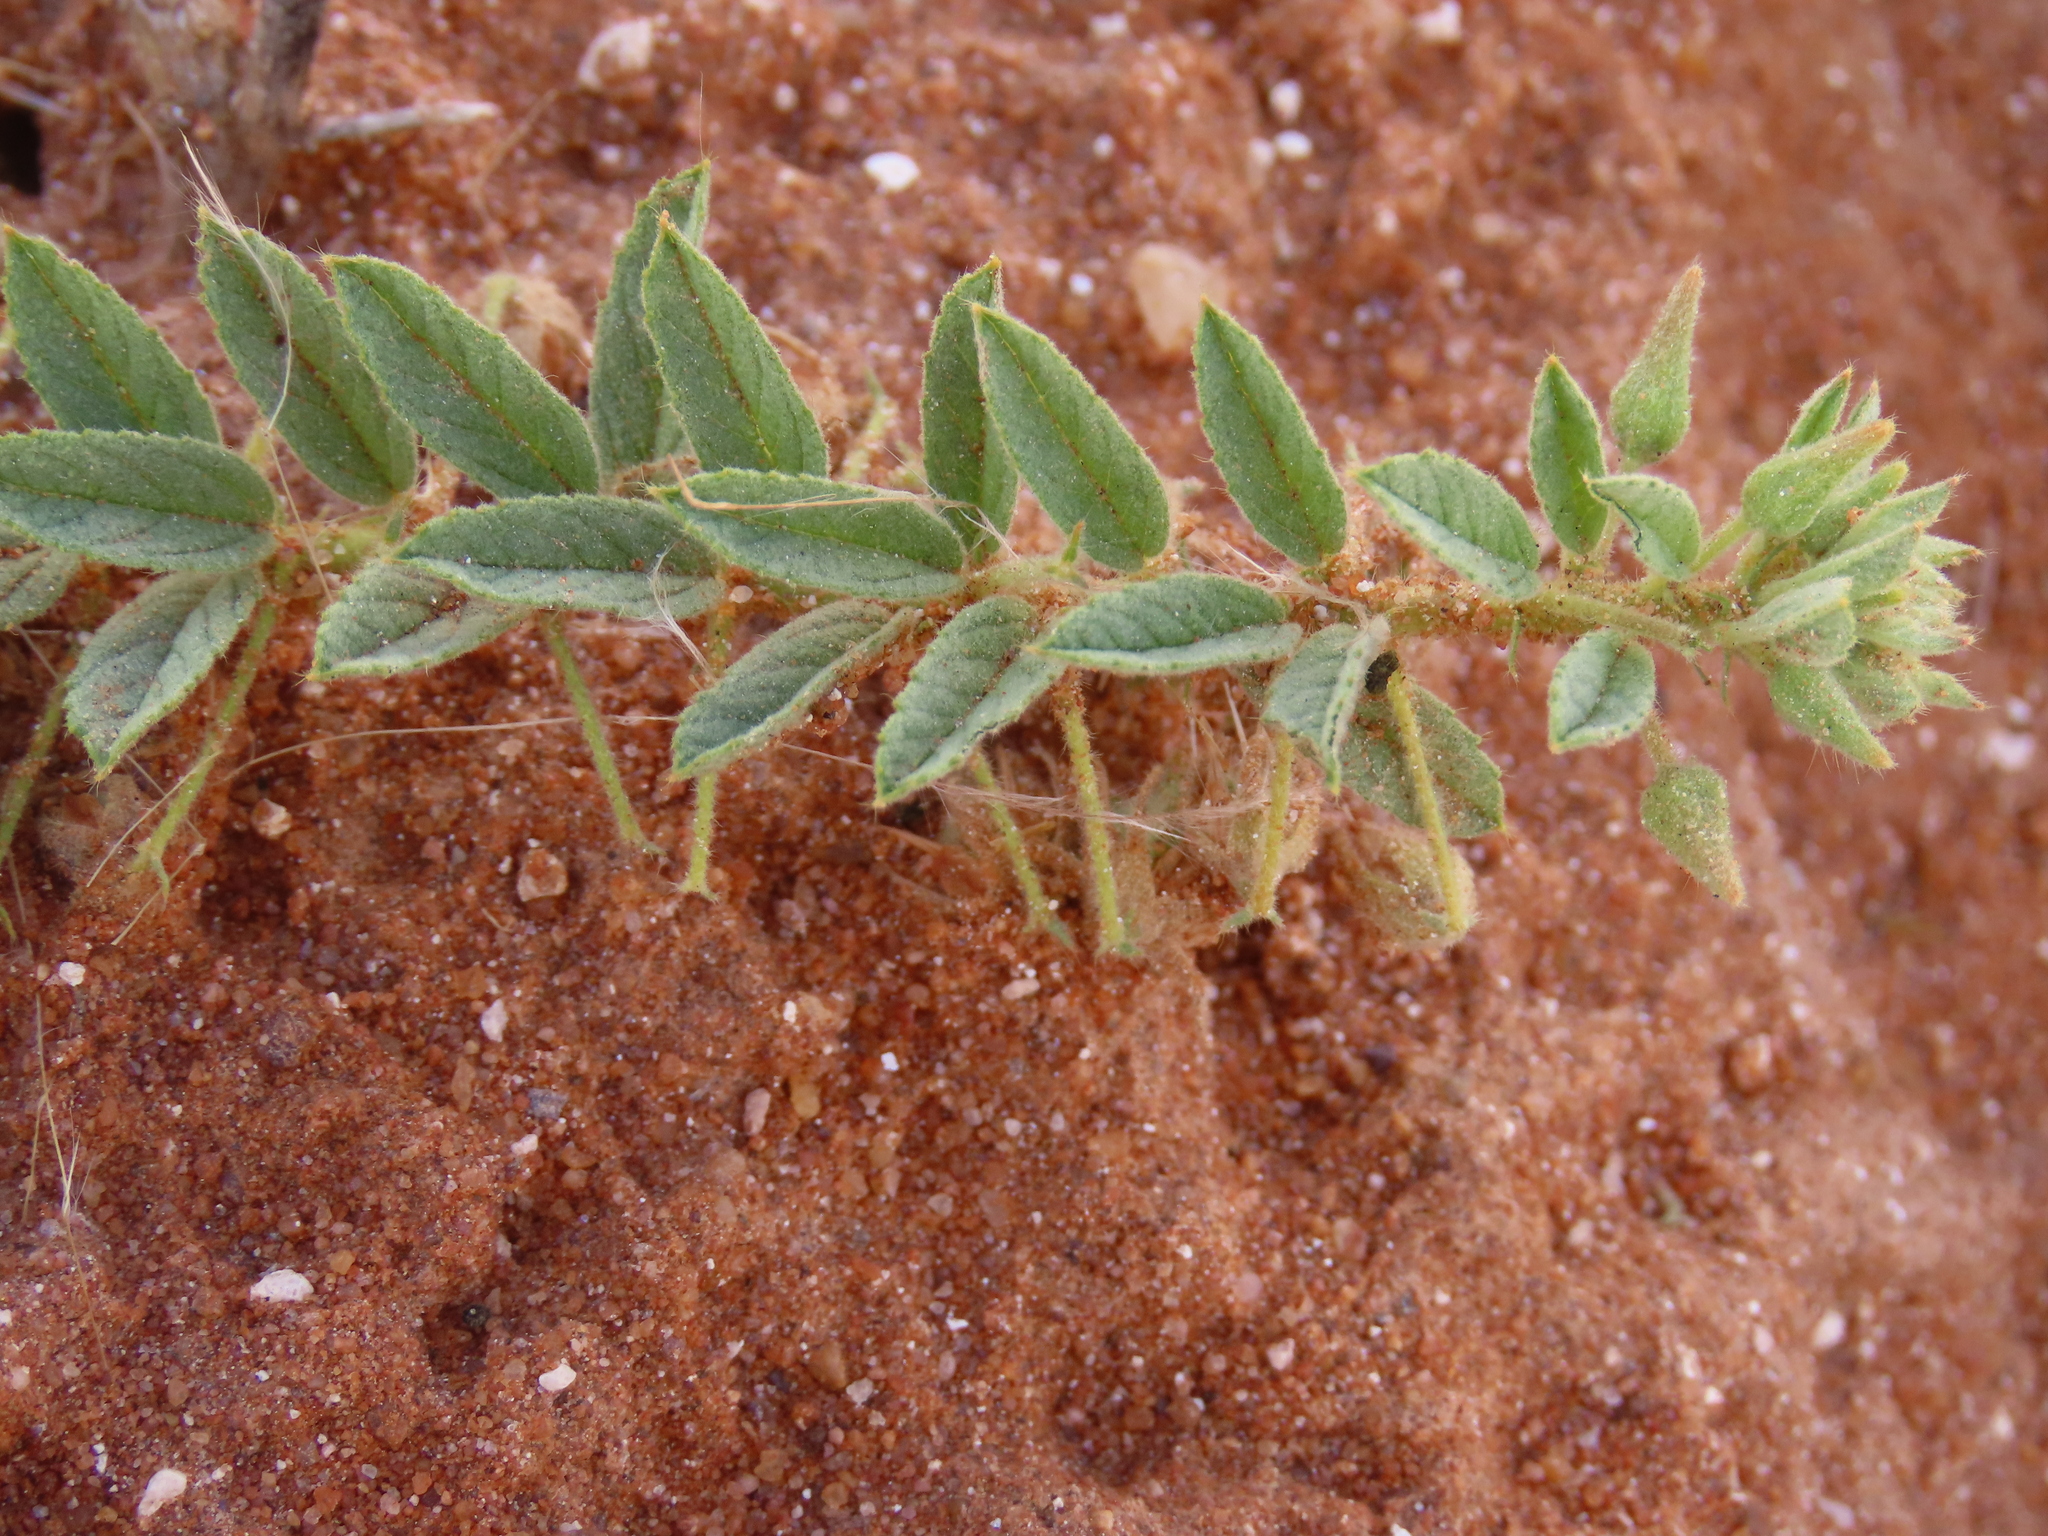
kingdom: Plantae
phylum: Tracheophyta
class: Magnoliopsida
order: Malvales
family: Malvaceae
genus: Hermannia
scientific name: Hermannia tomentosa
